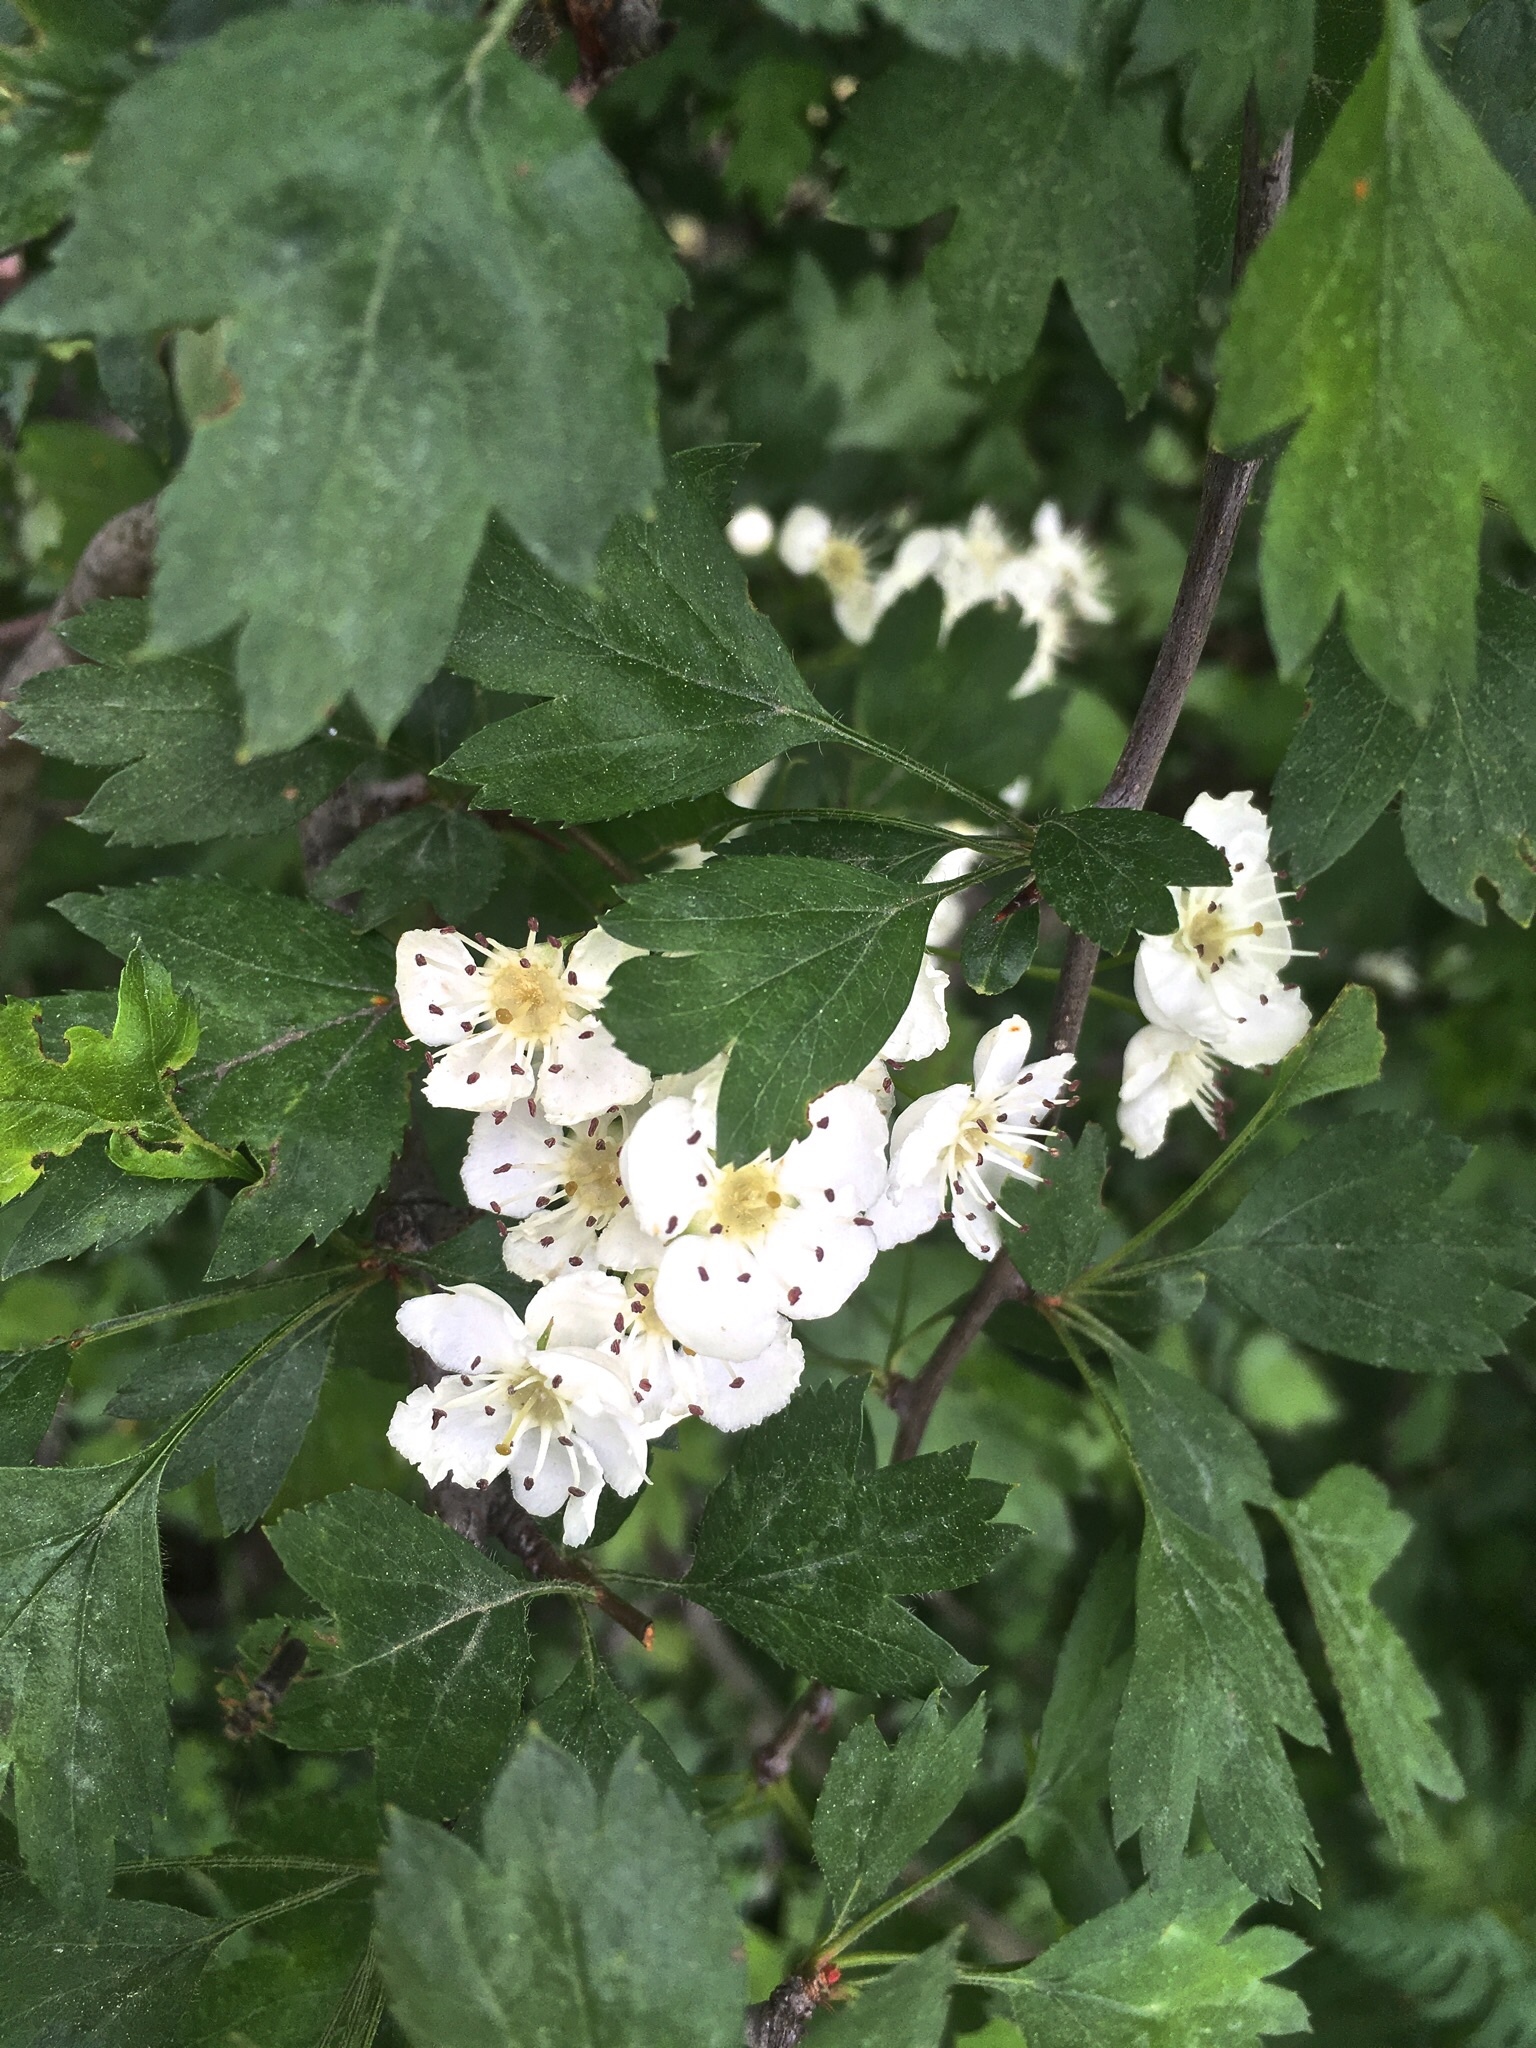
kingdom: Plantae
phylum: Tracheophyta
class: Magnoliopsida
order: Rosales
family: Rosaceae
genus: Crataegus
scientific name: Crataegus monogyna
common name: Hawthorn
